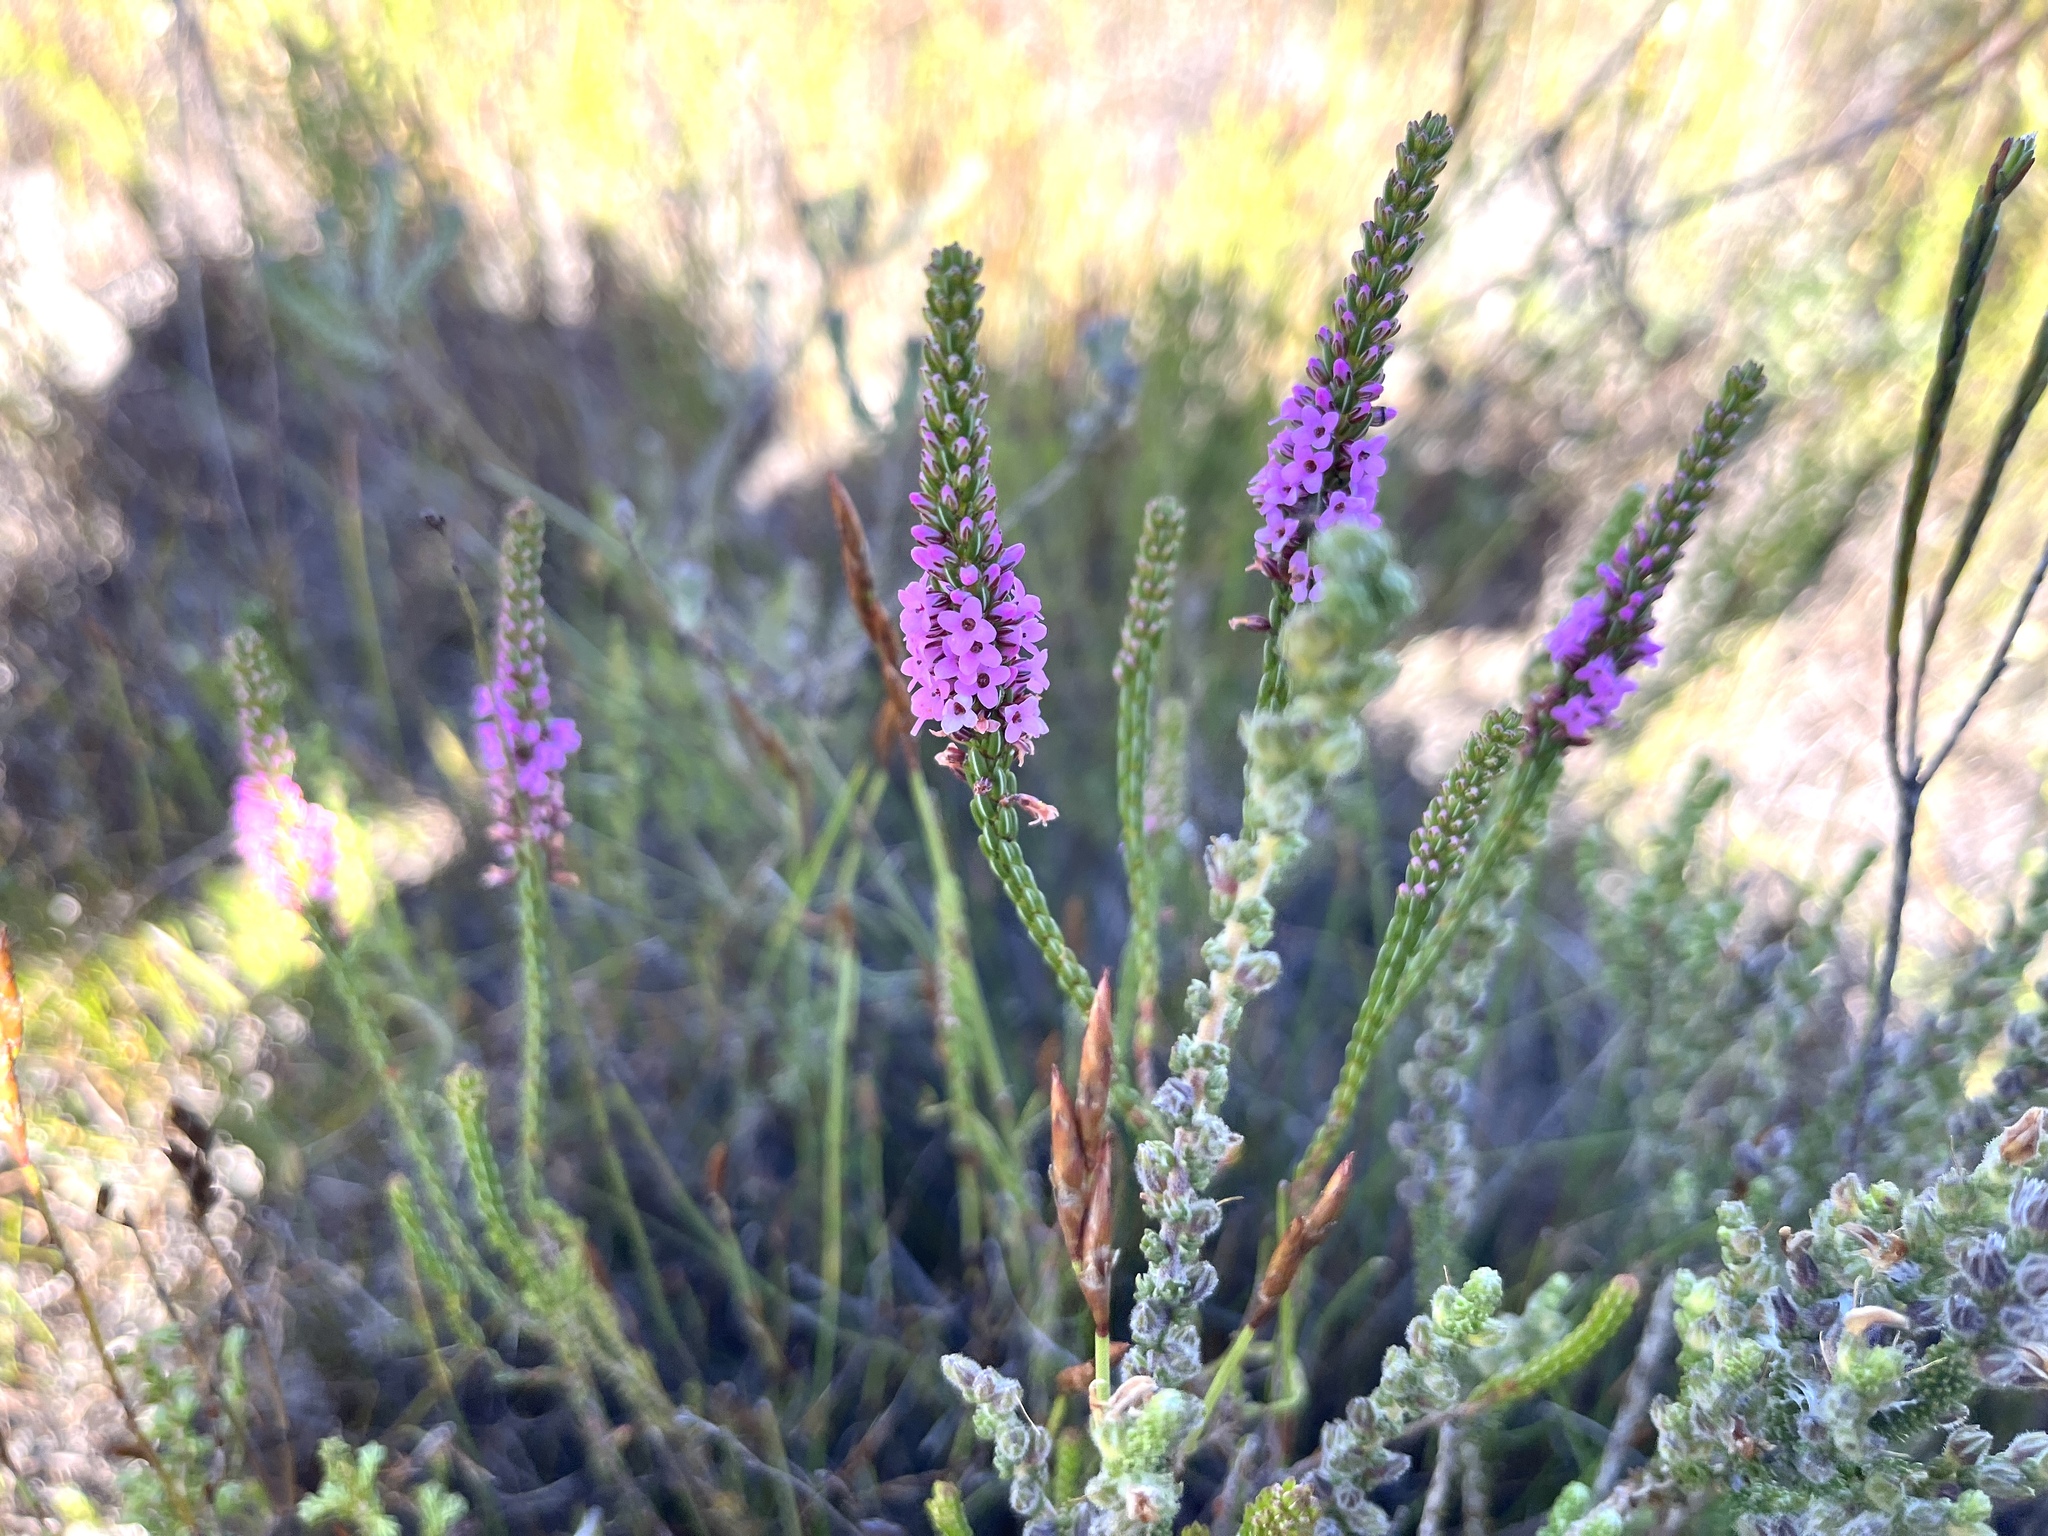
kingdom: Plantae
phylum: Tracheophyta
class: Magnoliopsida
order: Ericales
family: Ericaceae
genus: Erica
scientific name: Erica longiaristata
